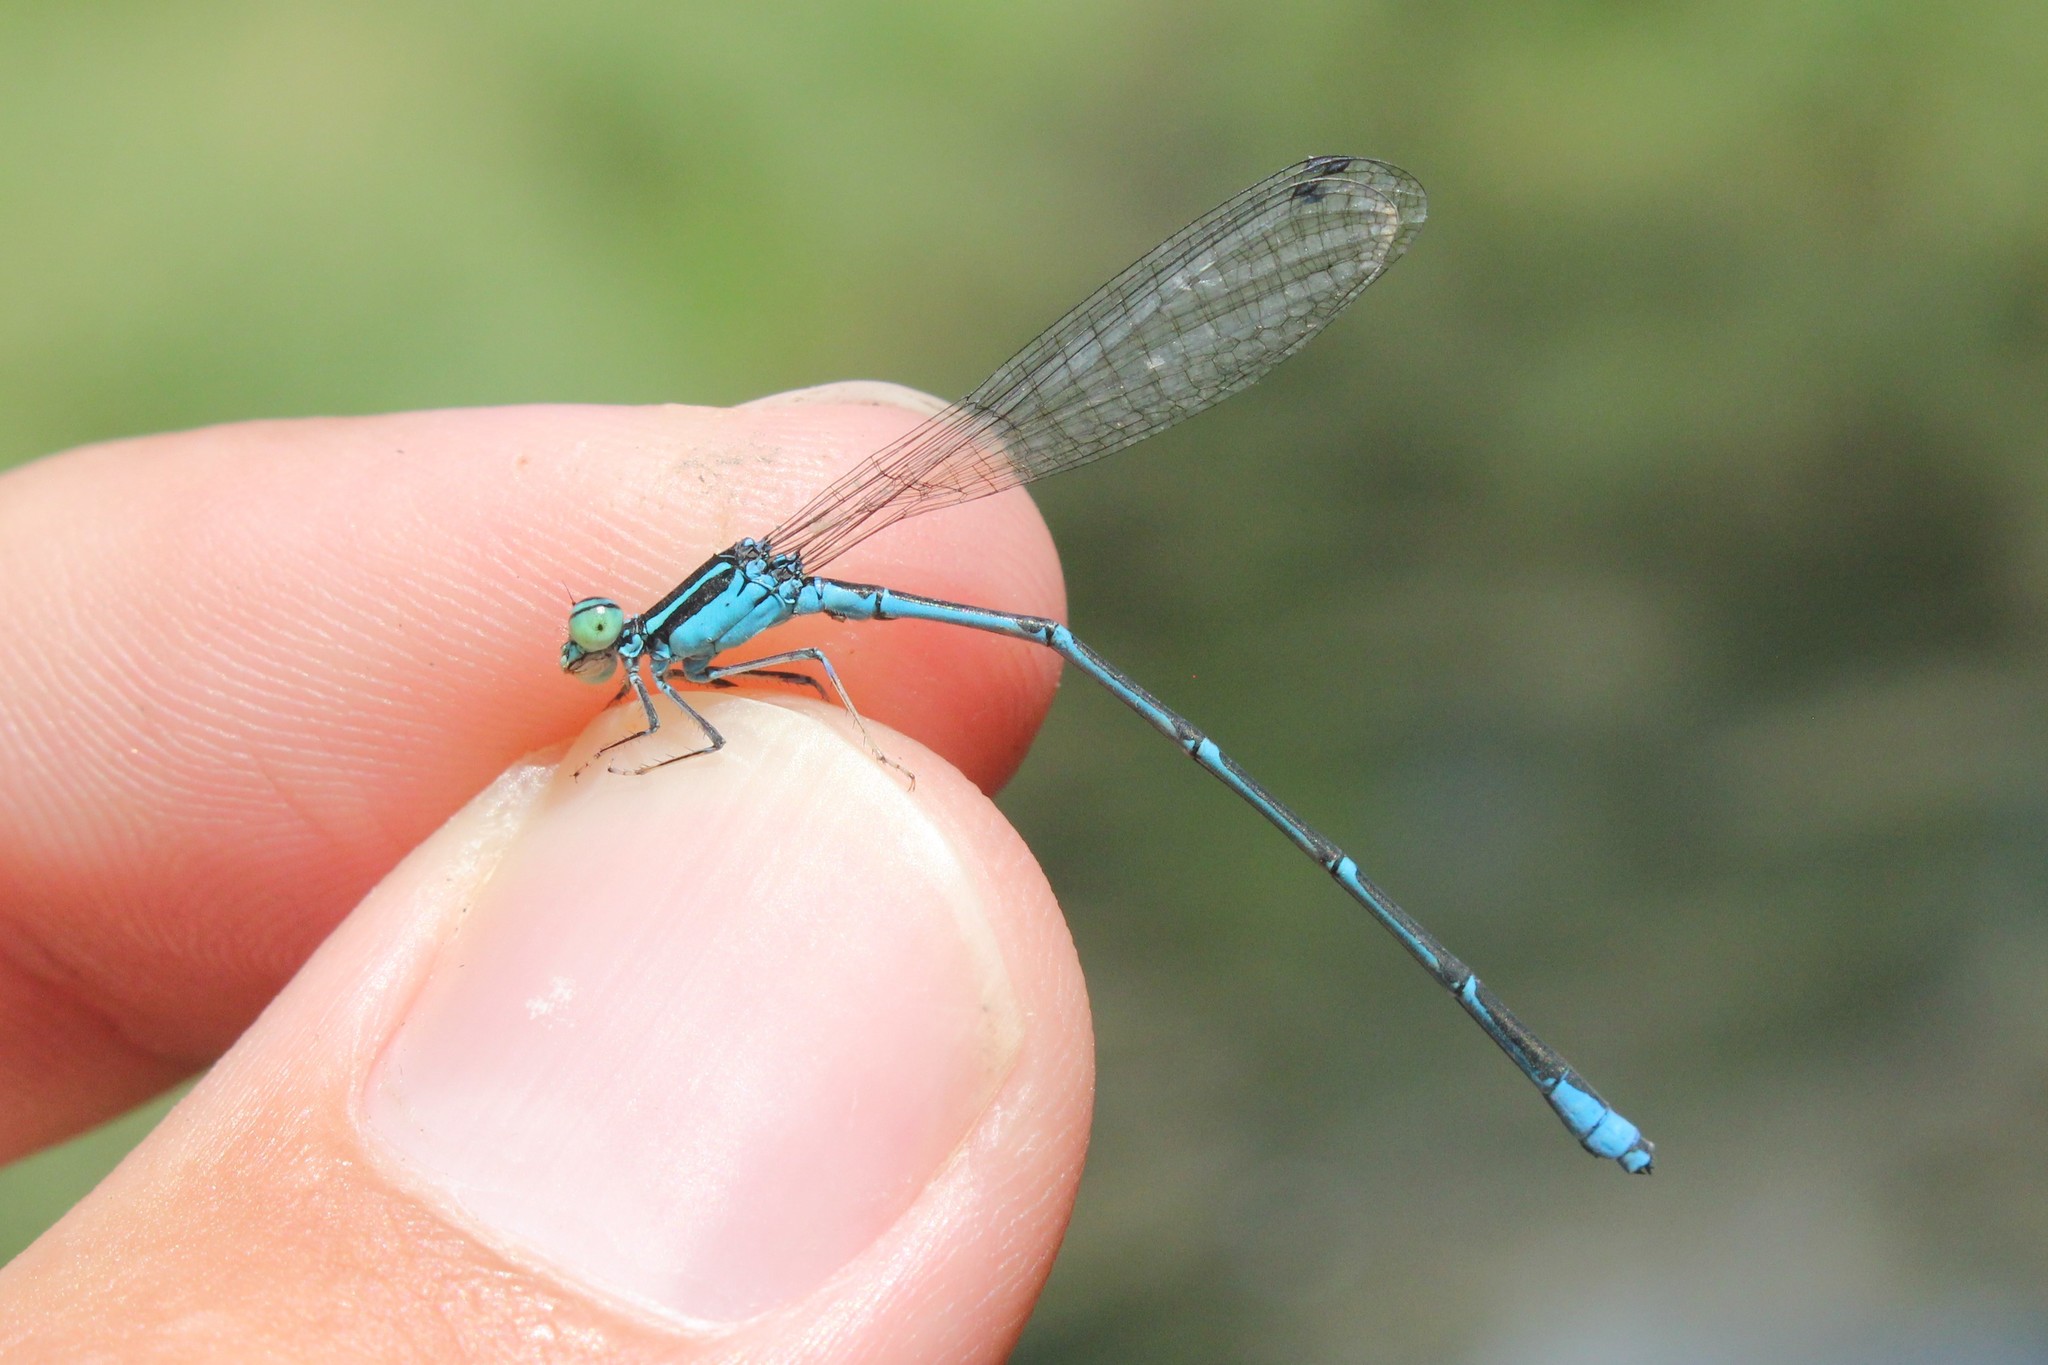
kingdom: Animalia
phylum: Arthropoda
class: Insecta
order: Odonata
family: Coenagrionidae
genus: Enallagma
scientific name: Enallagma exsulans
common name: Stream bluet
